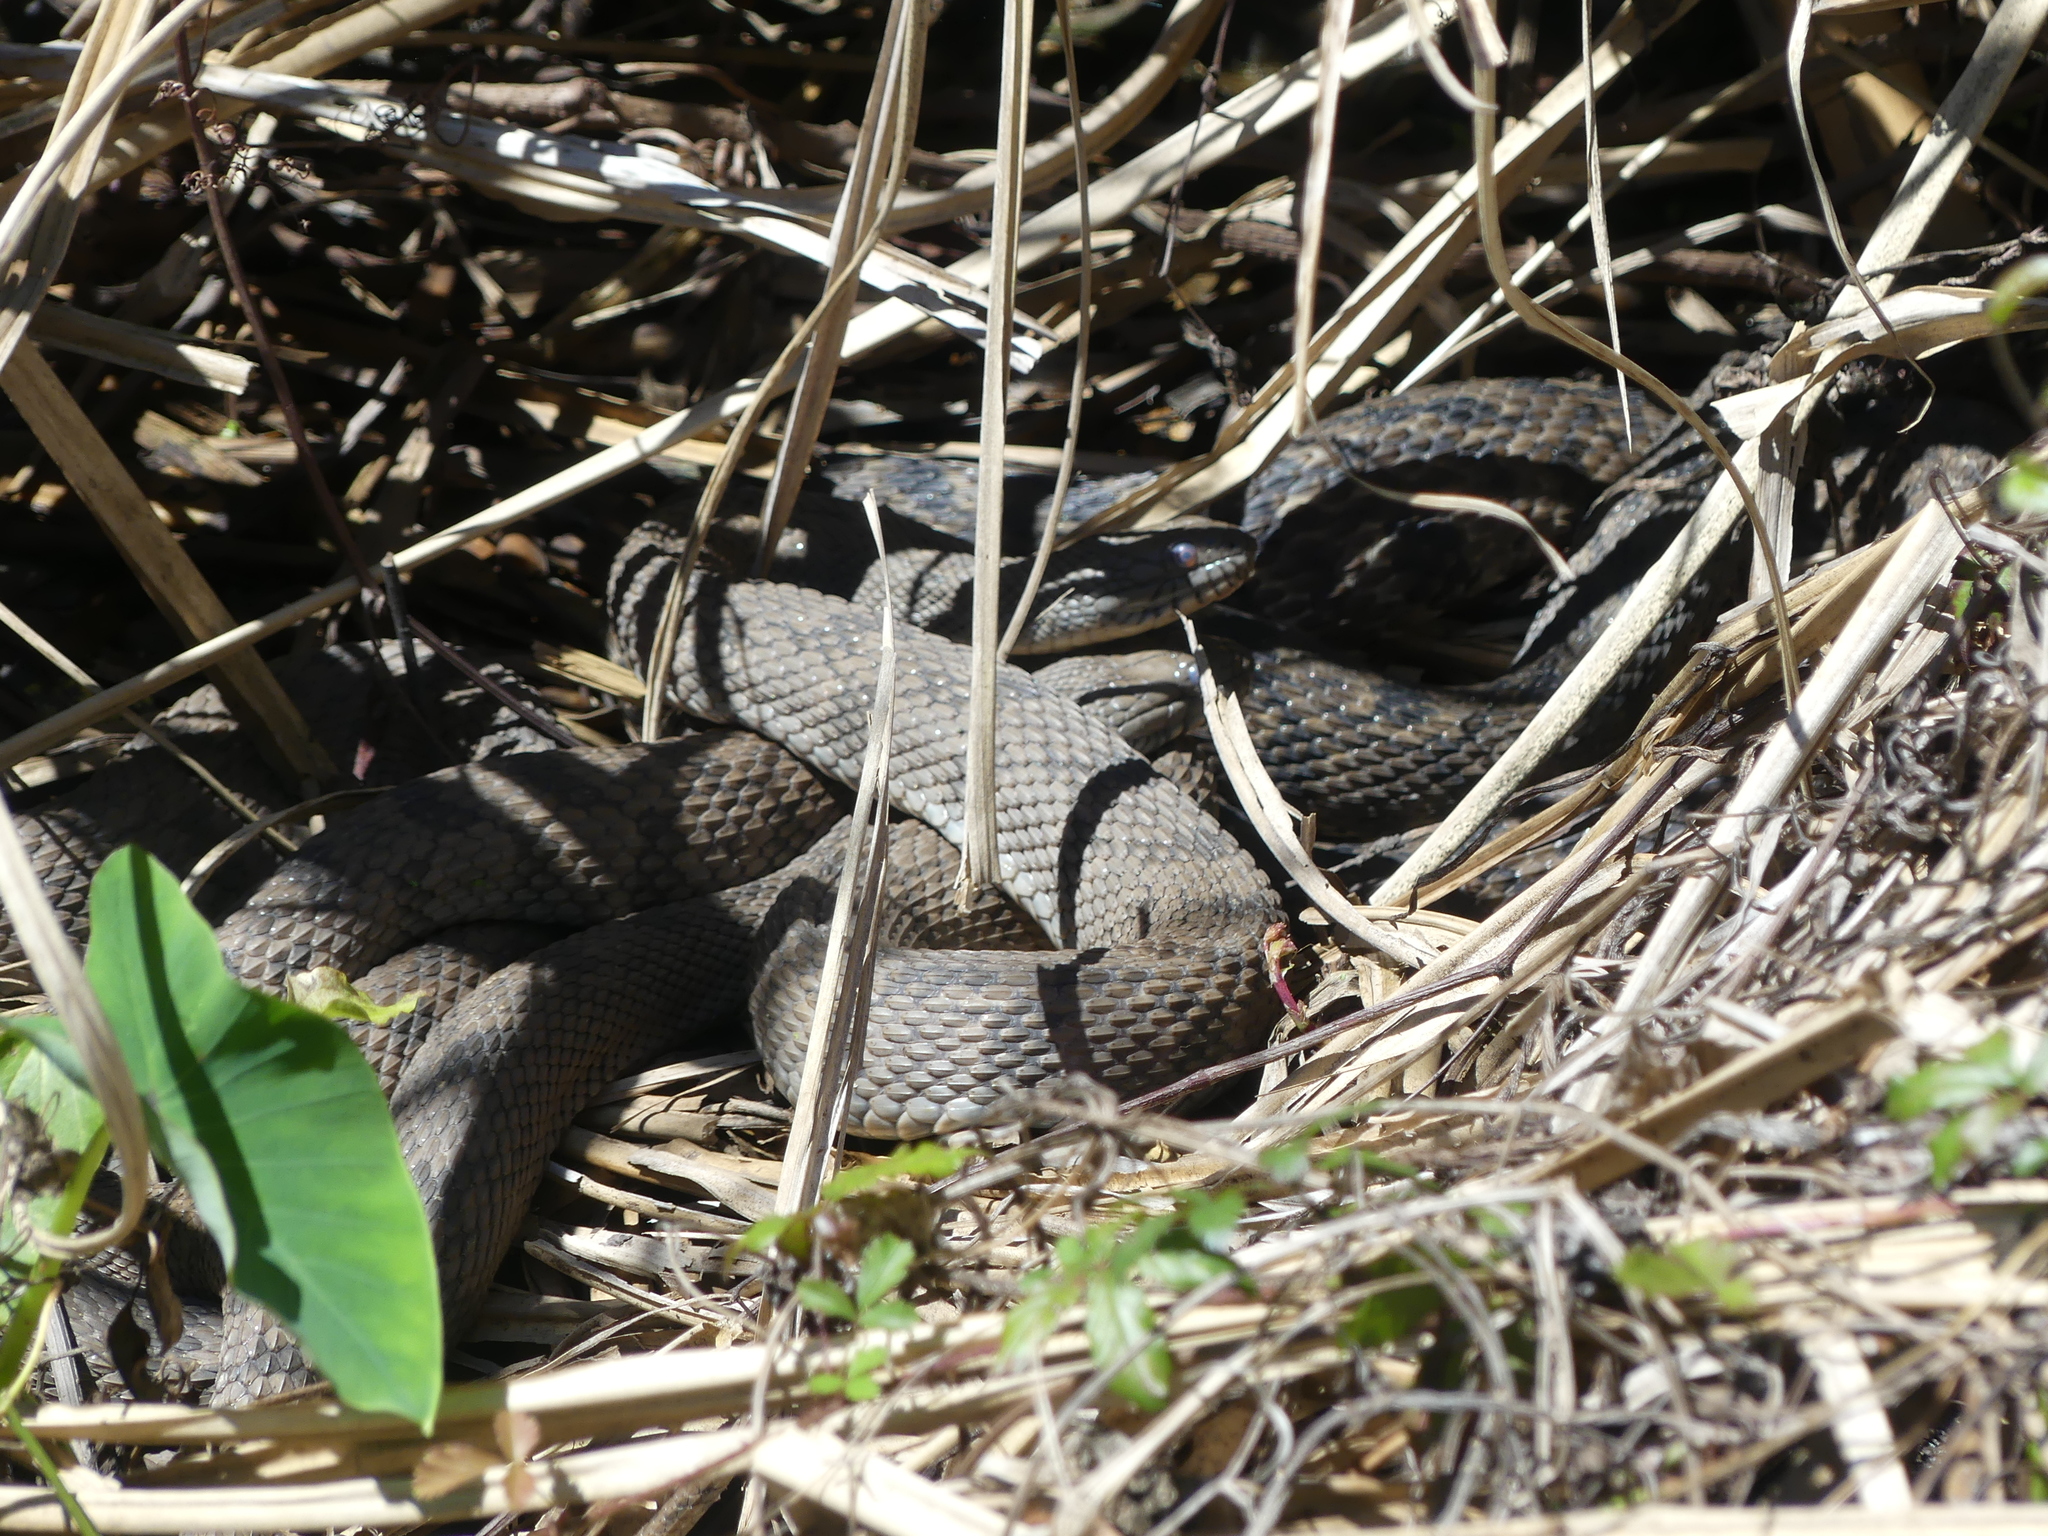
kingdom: Animalia
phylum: Chordata
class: Squamata
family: Colubridae
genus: Nerodia
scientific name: Nerodia rhombifer
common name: Diamondback water snake
